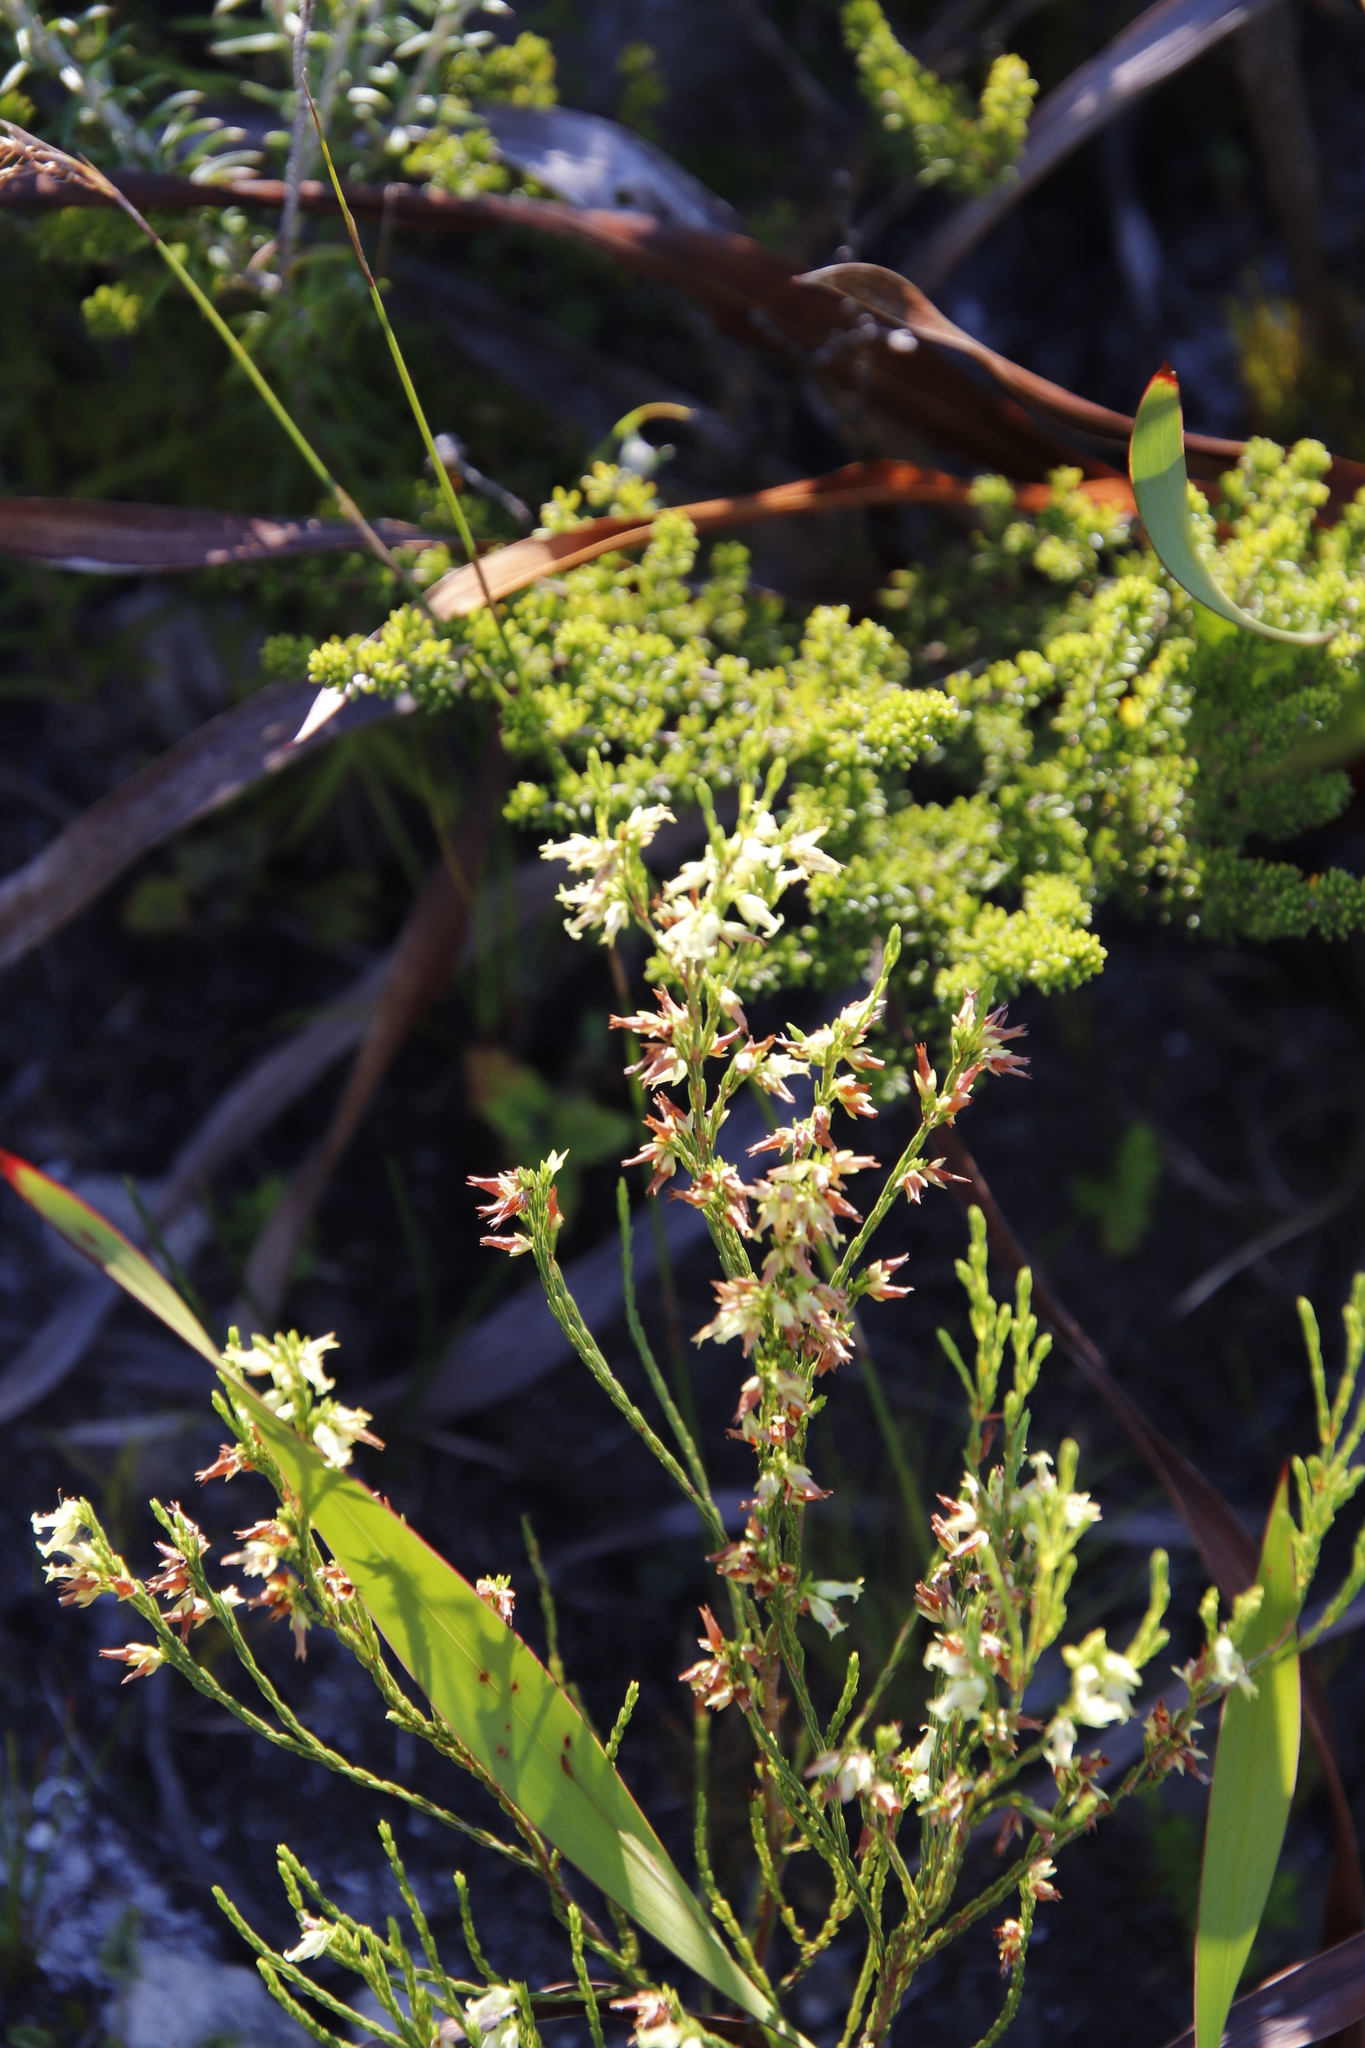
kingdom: Plantae
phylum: Tracheophyta
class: Magnoliopsida
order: Ericales
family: Ericaceae
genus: Erica
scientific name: Erica lutea
